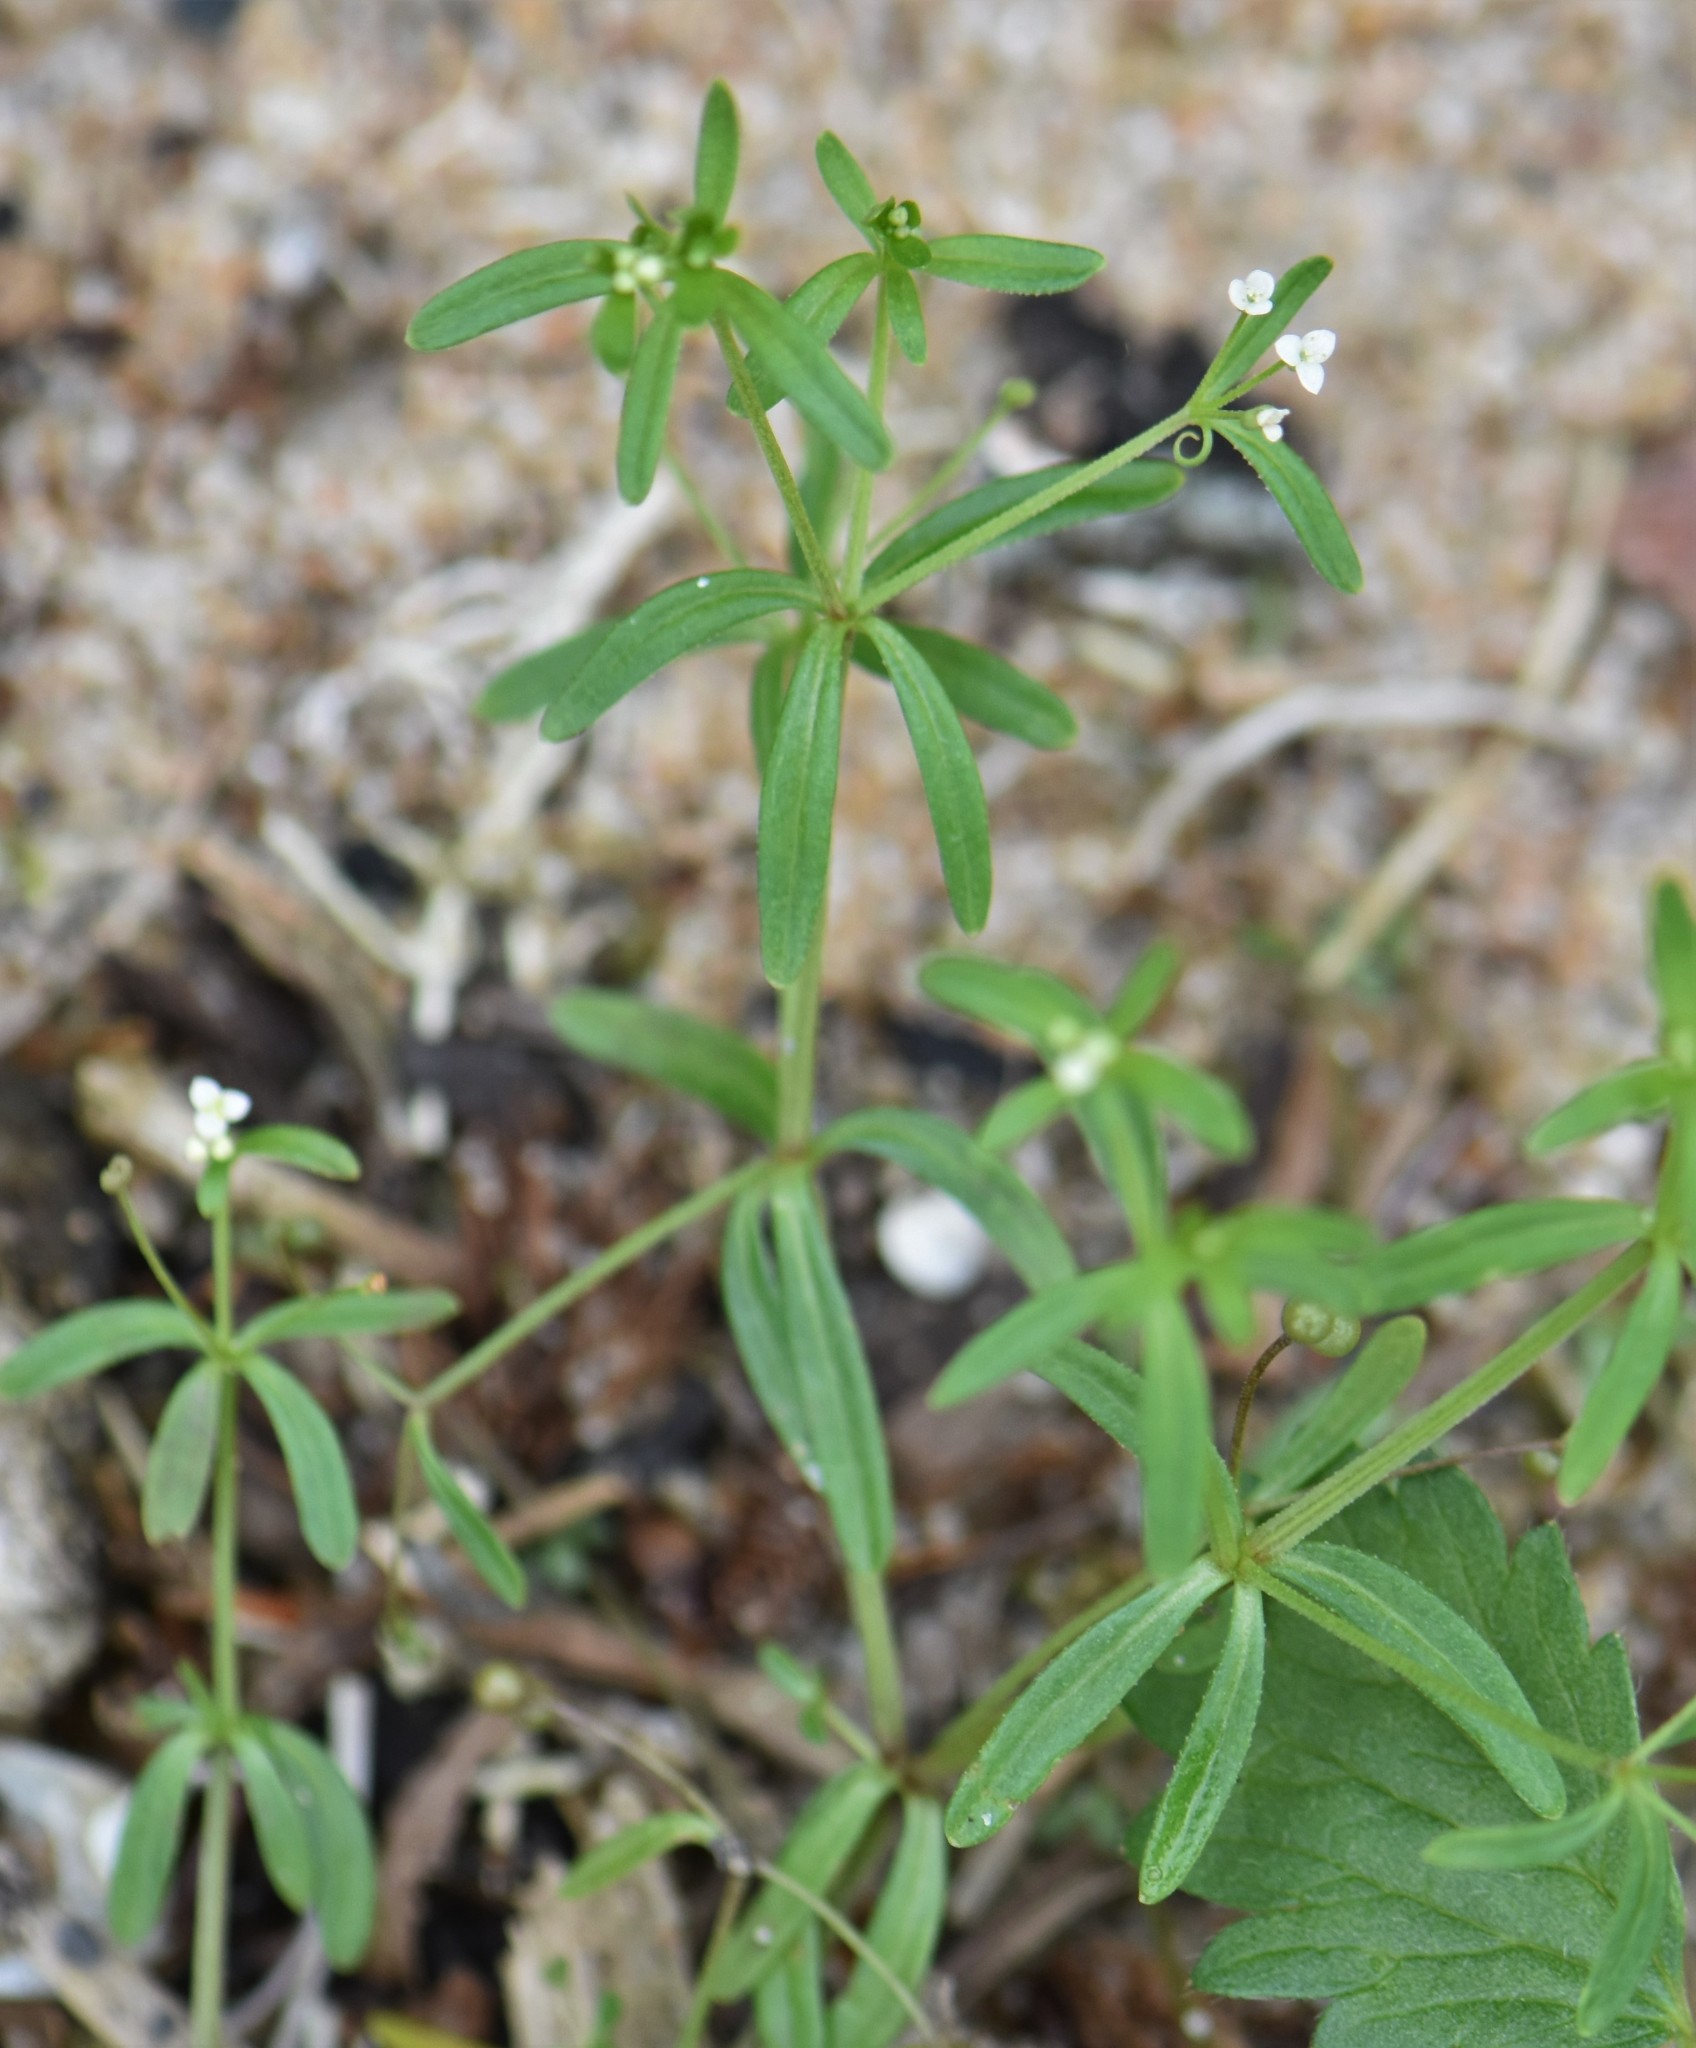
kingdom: Plantae
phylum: Tracheophyta
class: Magnoliopsida
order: Gentianales
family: Rubiaceae
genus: Galium
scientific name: Galium trifidum
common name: Small bedstraw
